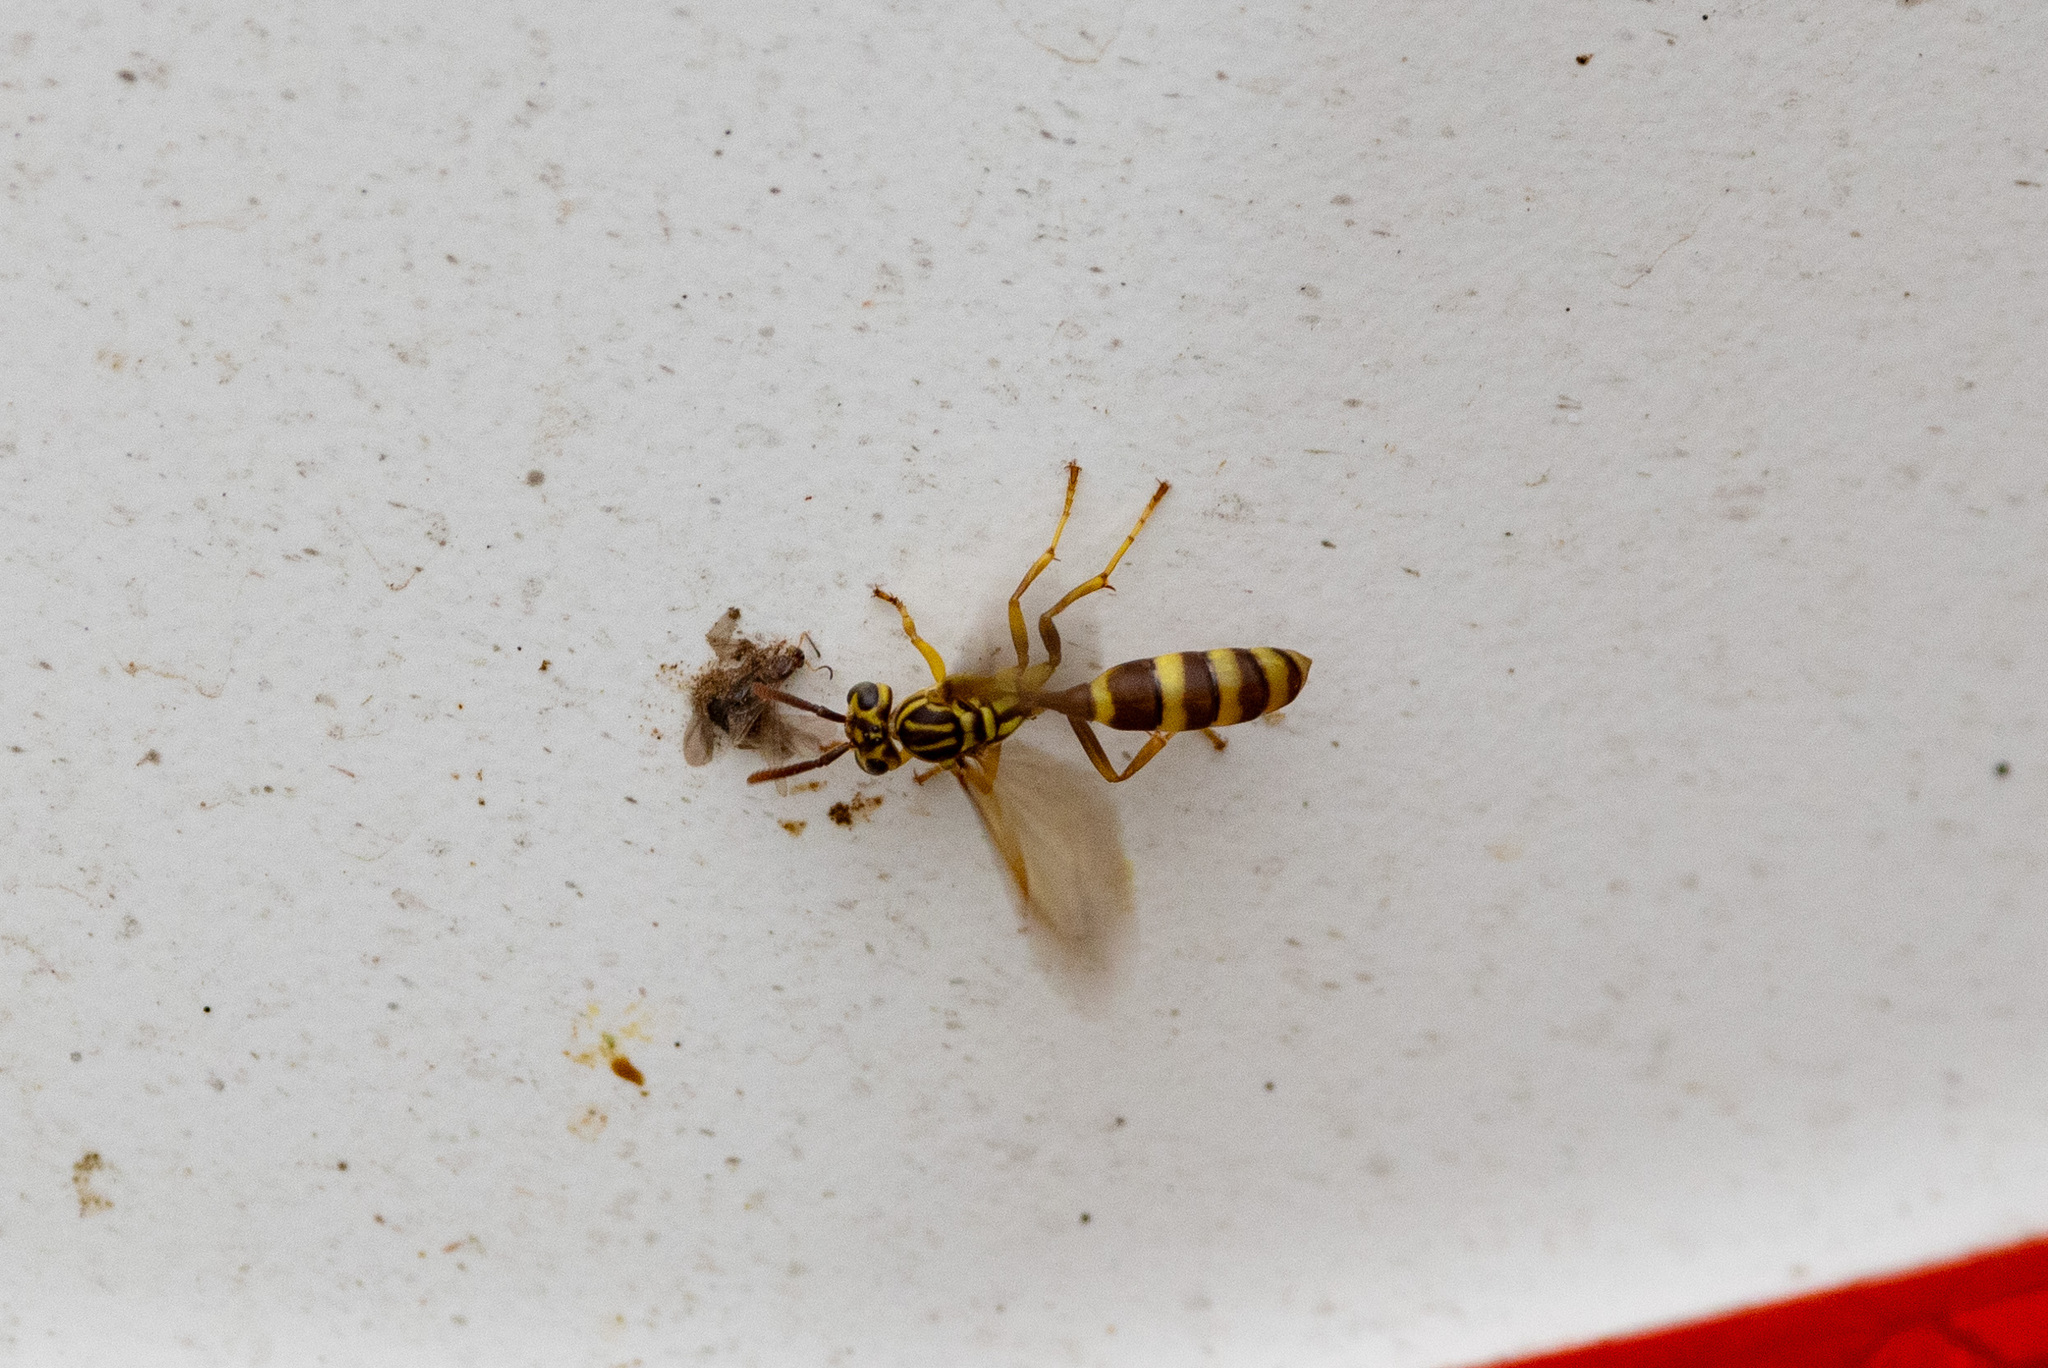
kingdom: Animalia
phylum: Arthropoda
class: Insecta
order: Hymenoptera
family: Vespidae
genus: Agelaia
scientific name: Agelaia cajennensis
